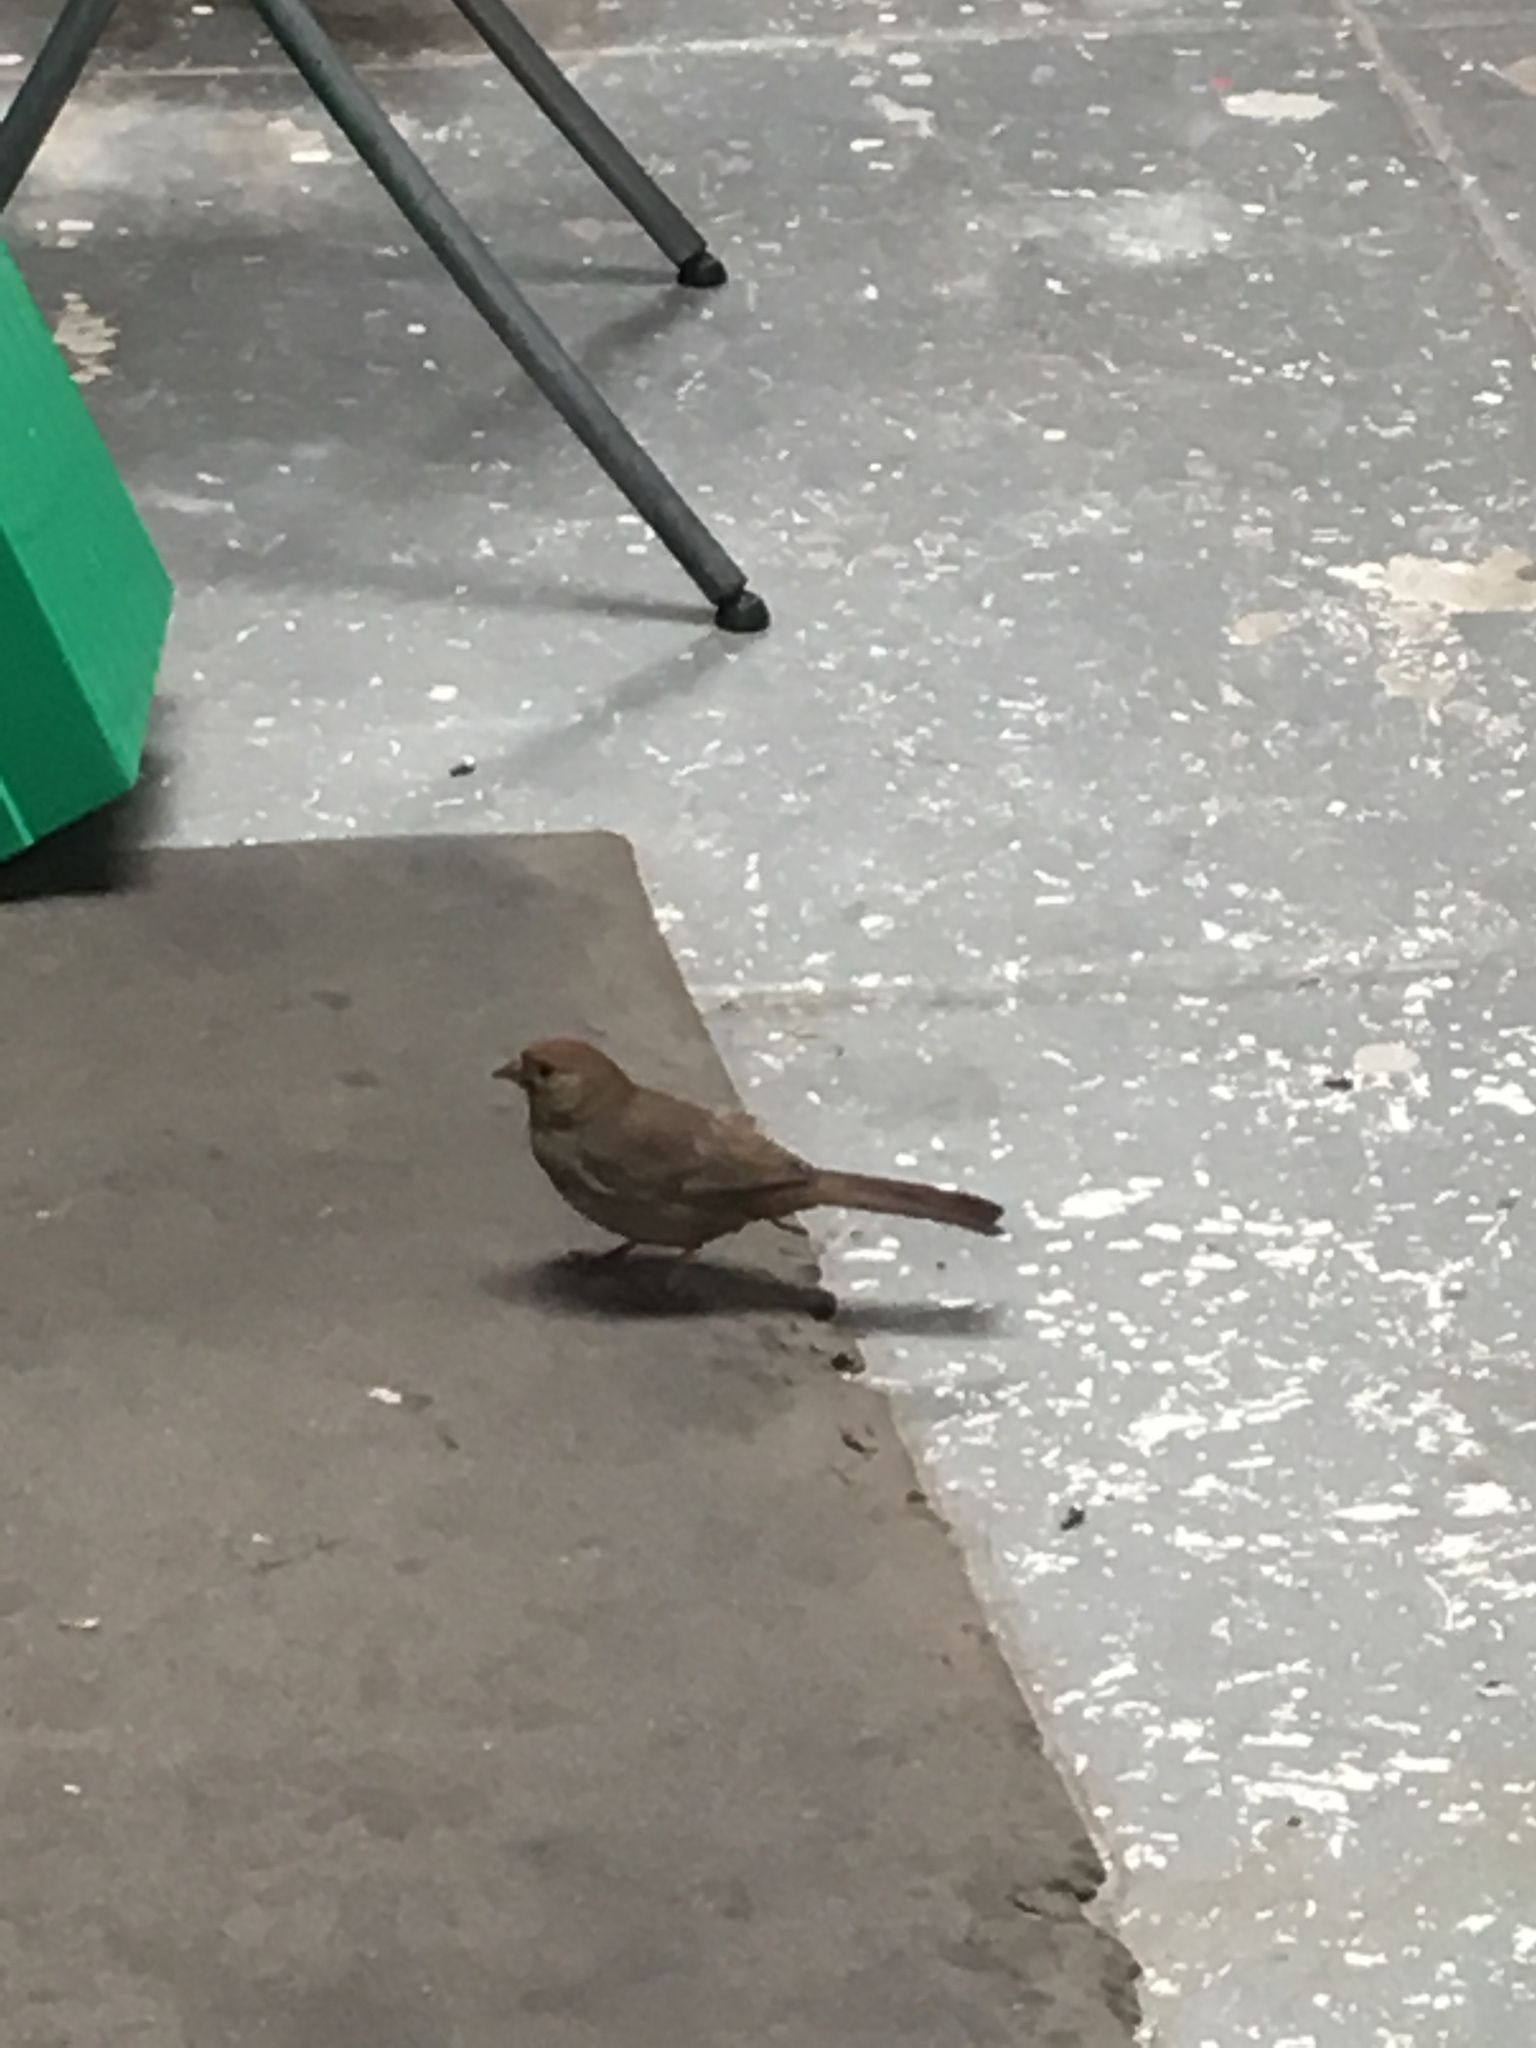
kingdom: Animalia
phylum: Chordata
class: Aves
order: Passeriformes
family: Passerellidae
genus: Melozone
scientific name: Melozone crissalis
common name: California towhee
